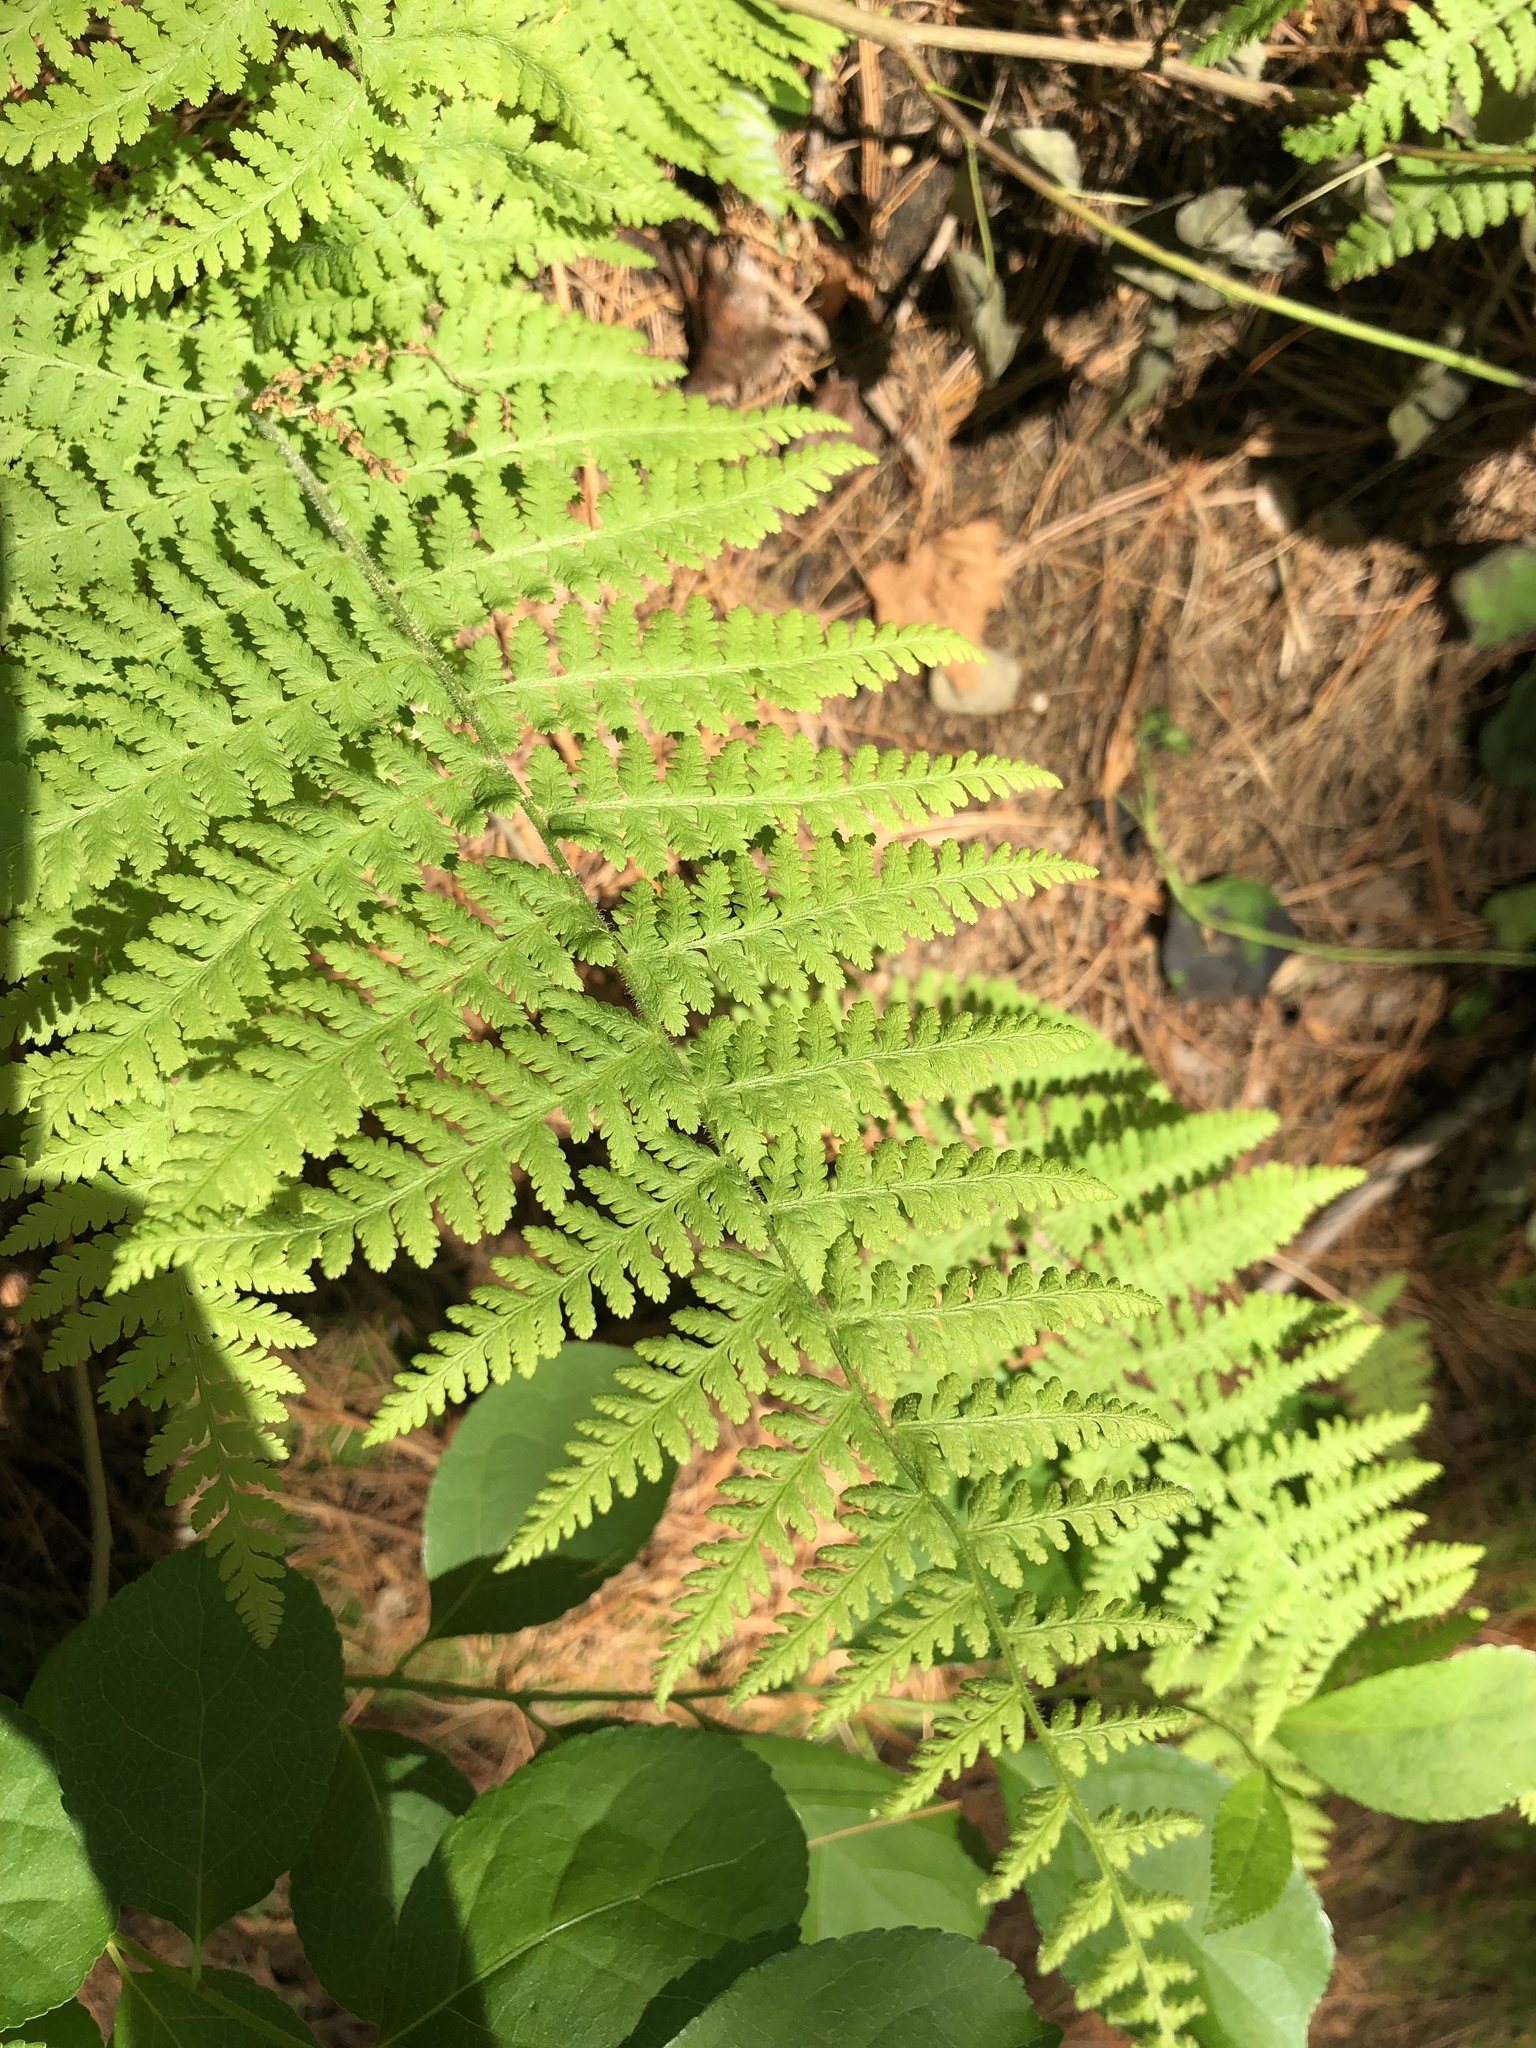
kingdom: Plantae
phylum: Tracheophyta
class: Polypodiopsida
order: Polypodiales
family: Dennstaedtiaceae
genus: Sitobolium
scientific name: Sitobolium punctilobum
